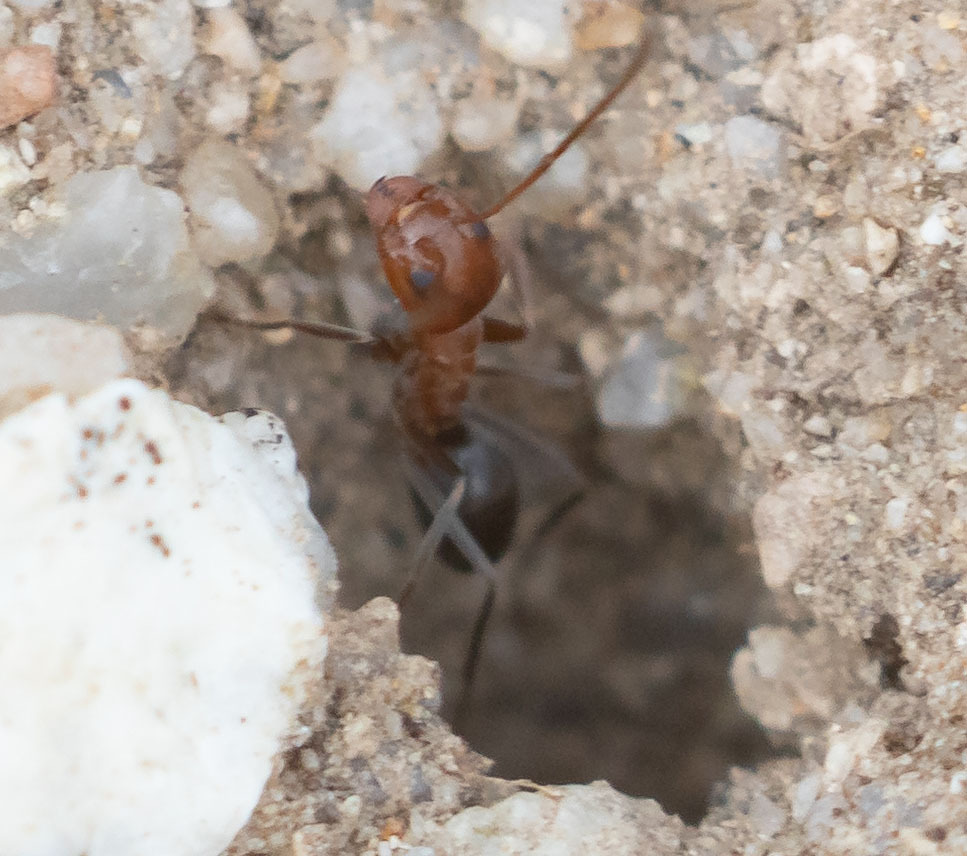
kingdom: Animalia
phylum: Arthropoda
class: Insecta
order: Hymenoptera
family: Formicidae
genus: Dorymyrmex
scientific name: Dorymyrmex bicolor
